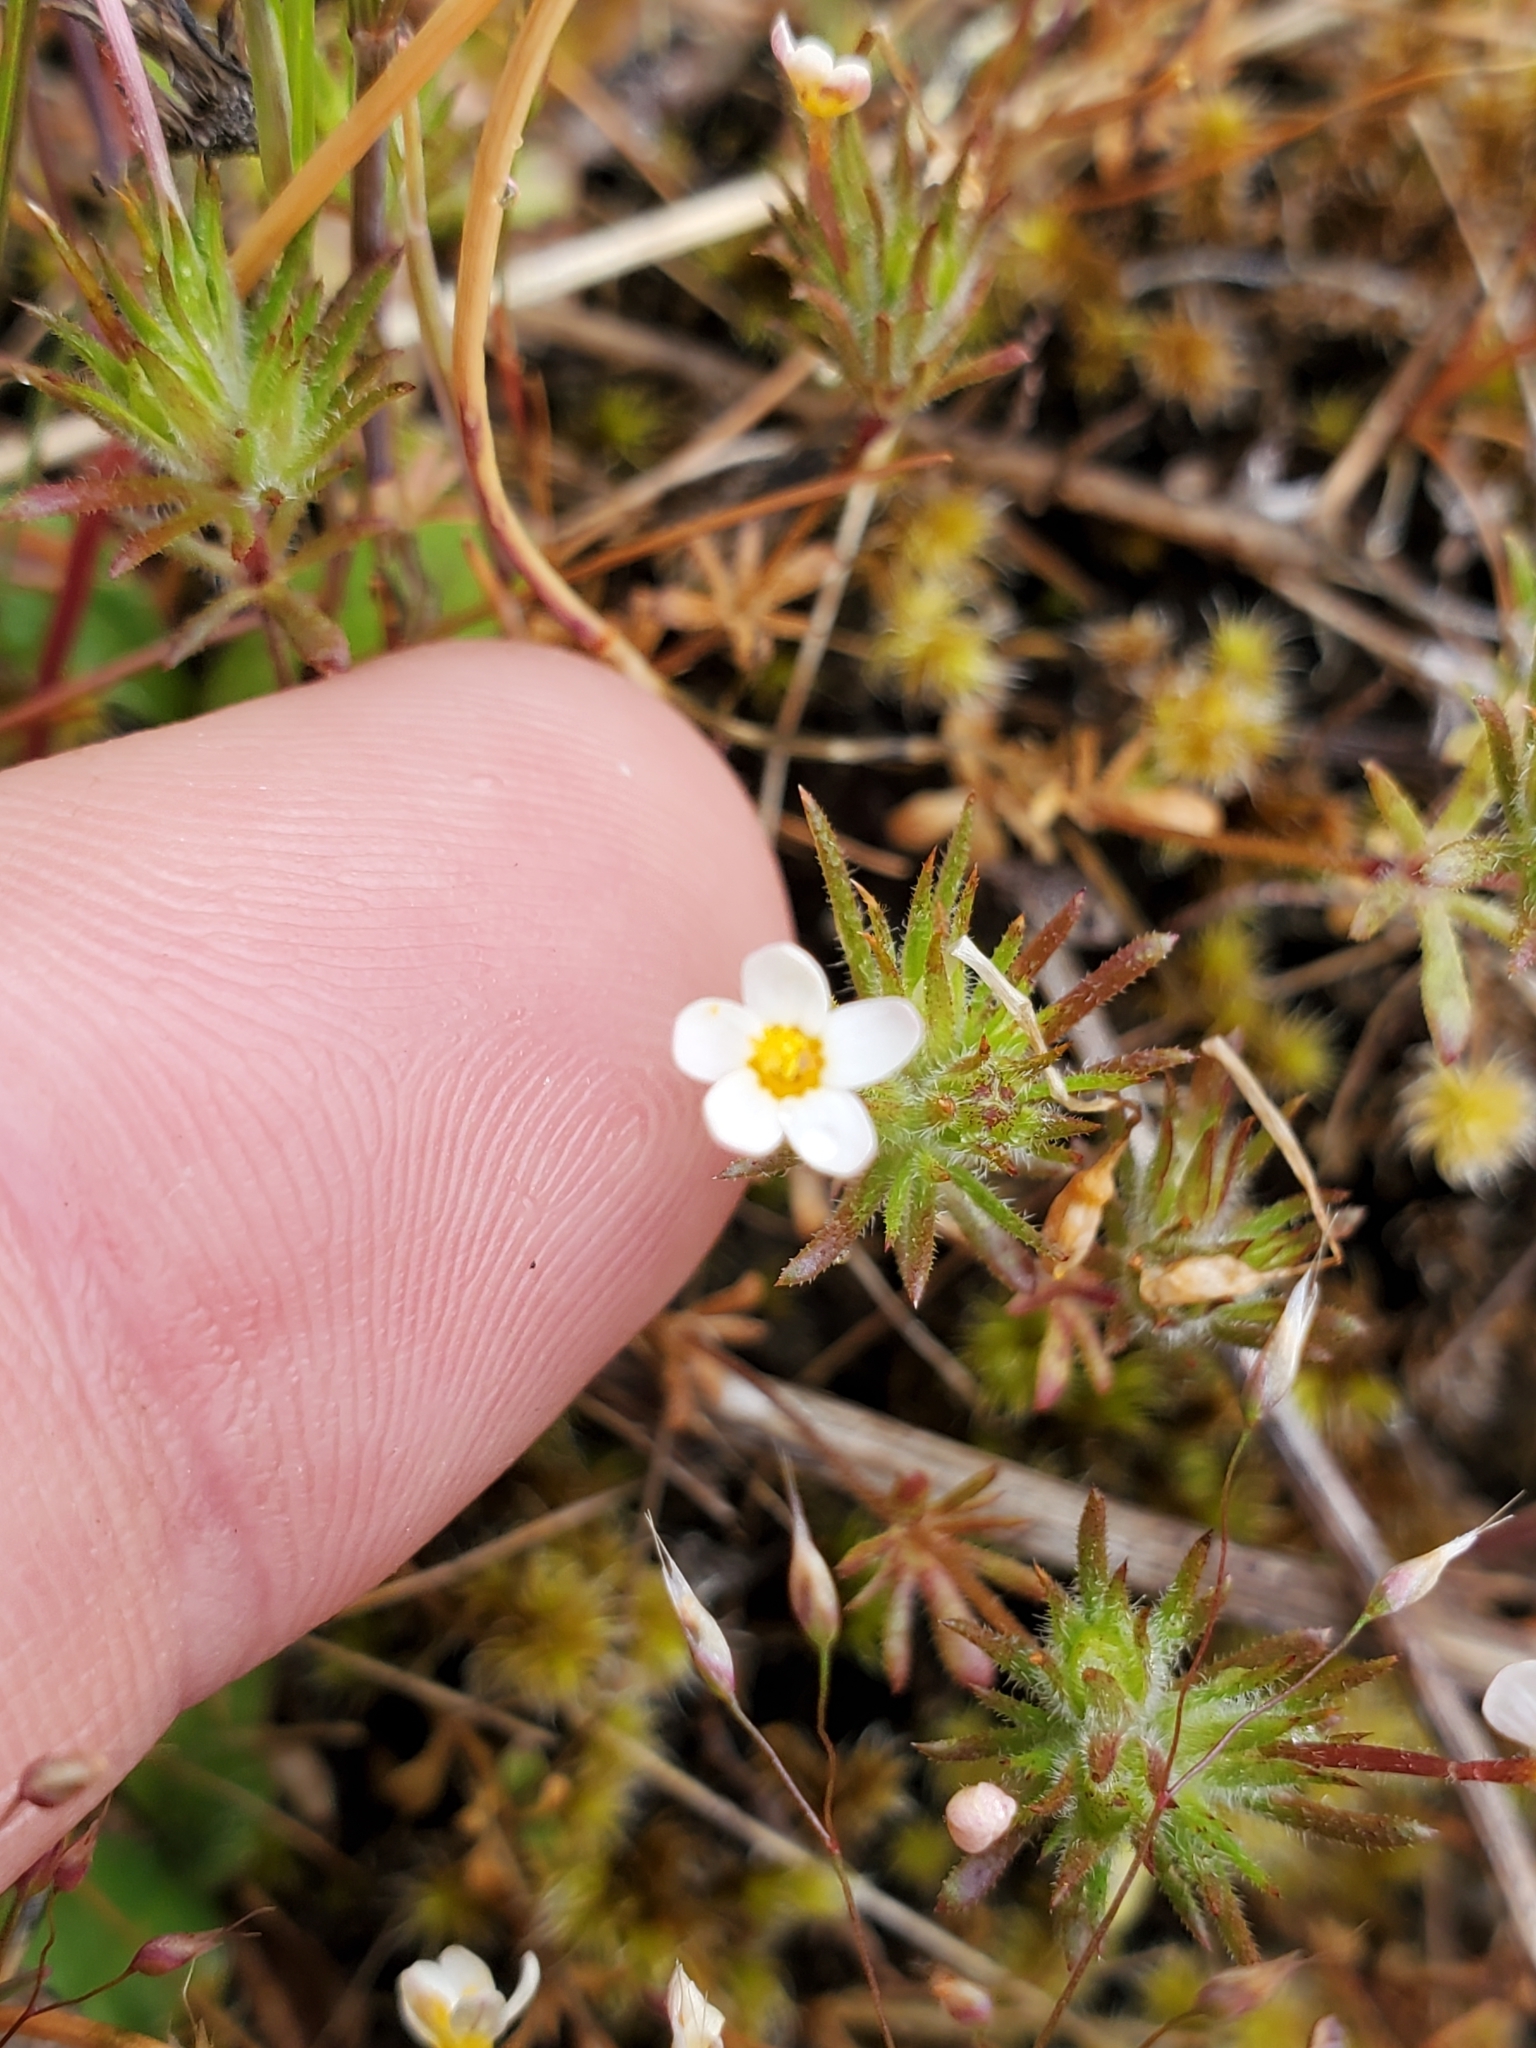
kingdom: Plantae
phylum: Tracheophyta
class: Magnoliopsida
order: Ericales
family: Polemoniaceae
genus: Leptosiphon
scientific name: Leptosiphon bicolor
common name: True babystars
